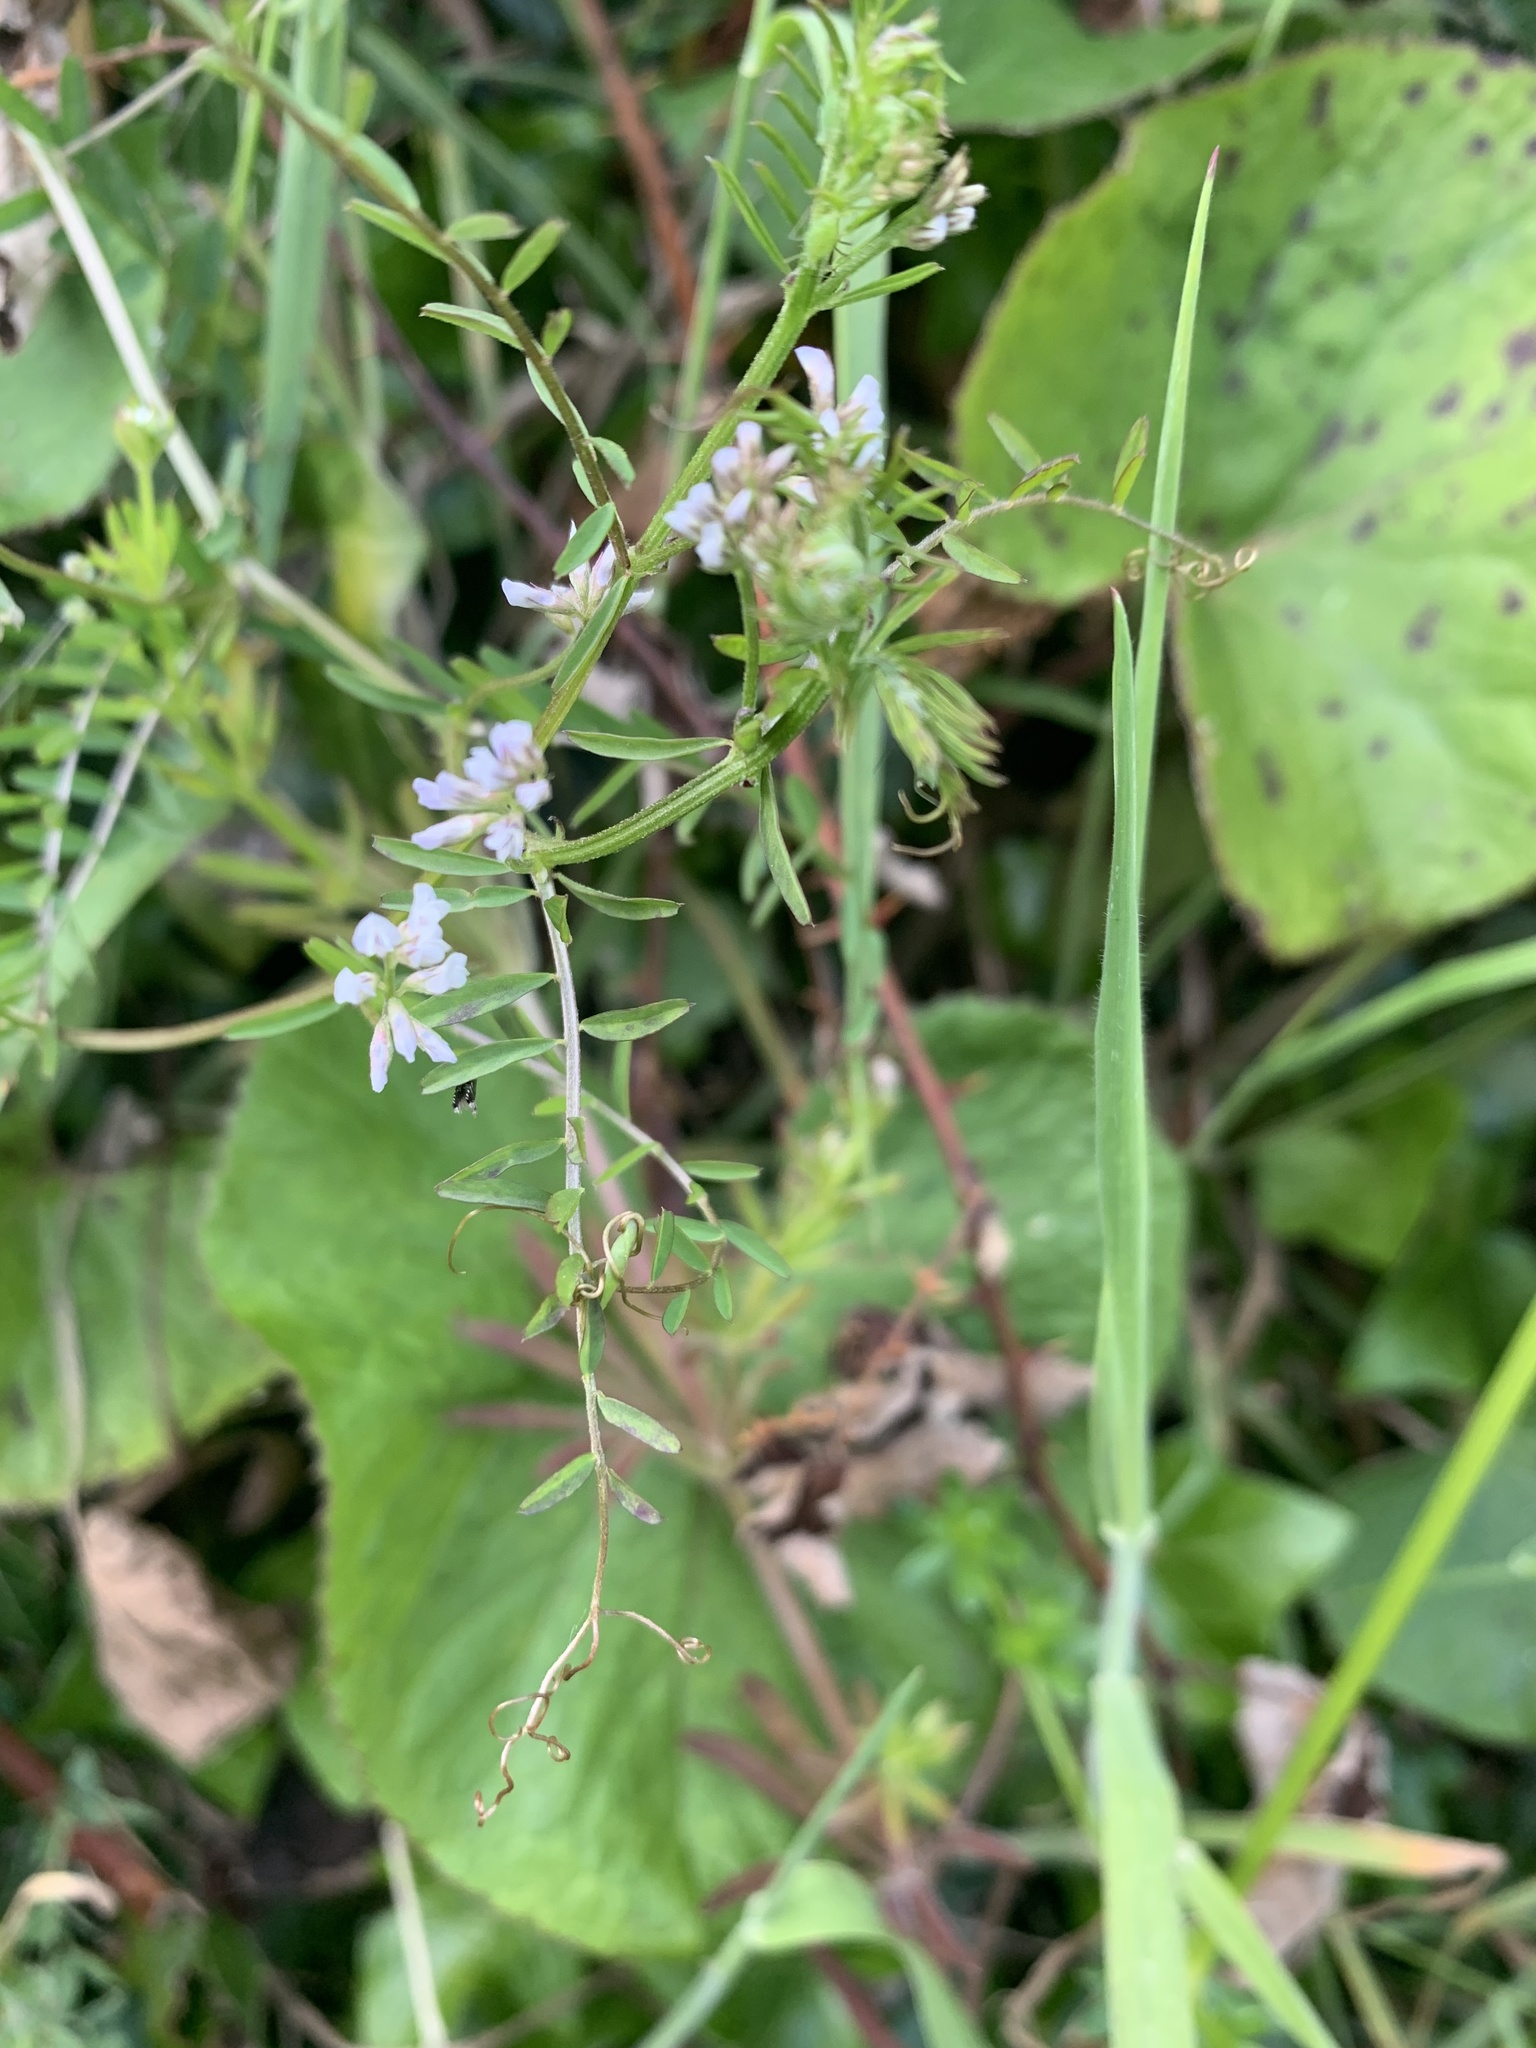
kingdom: Plantae
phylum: Tracheophyta
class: Magnoliopsida
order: Fabales
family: Fabaceae
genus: Vicia
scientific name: Vicia hirsuta
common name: Tiny vetch
